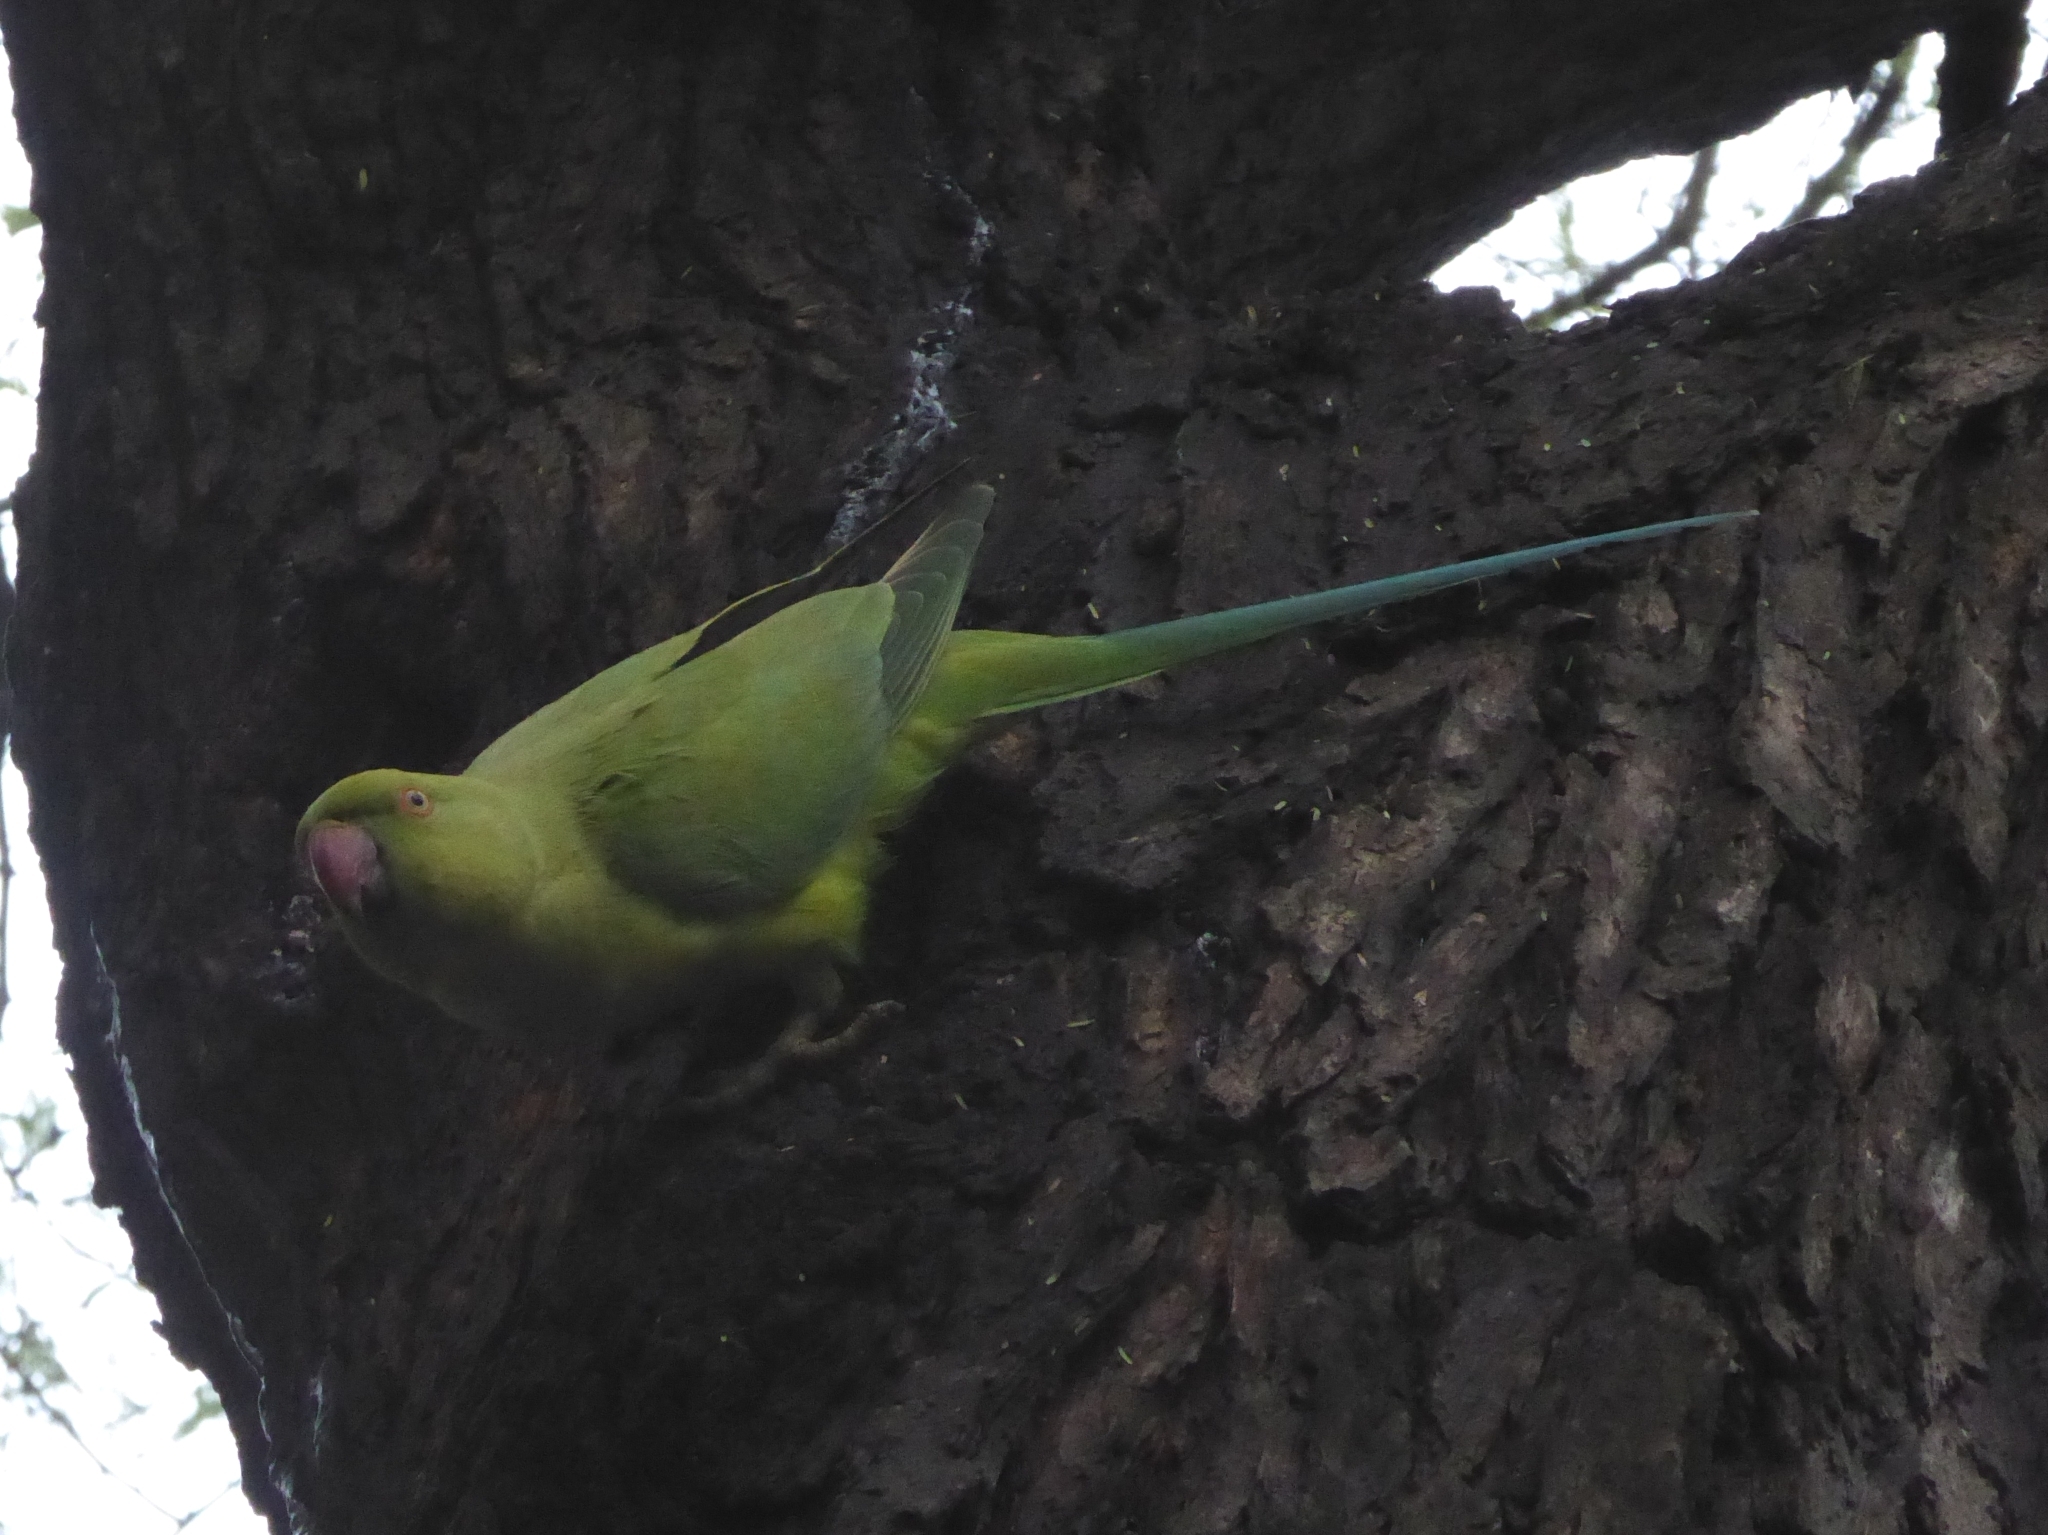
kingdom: Animalia
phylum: Chordata
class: Aves
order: Psittaciformes
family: Psittacidae
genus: Psittacula
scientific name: Psittacula krameri
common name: Rose-ringed parakeet
